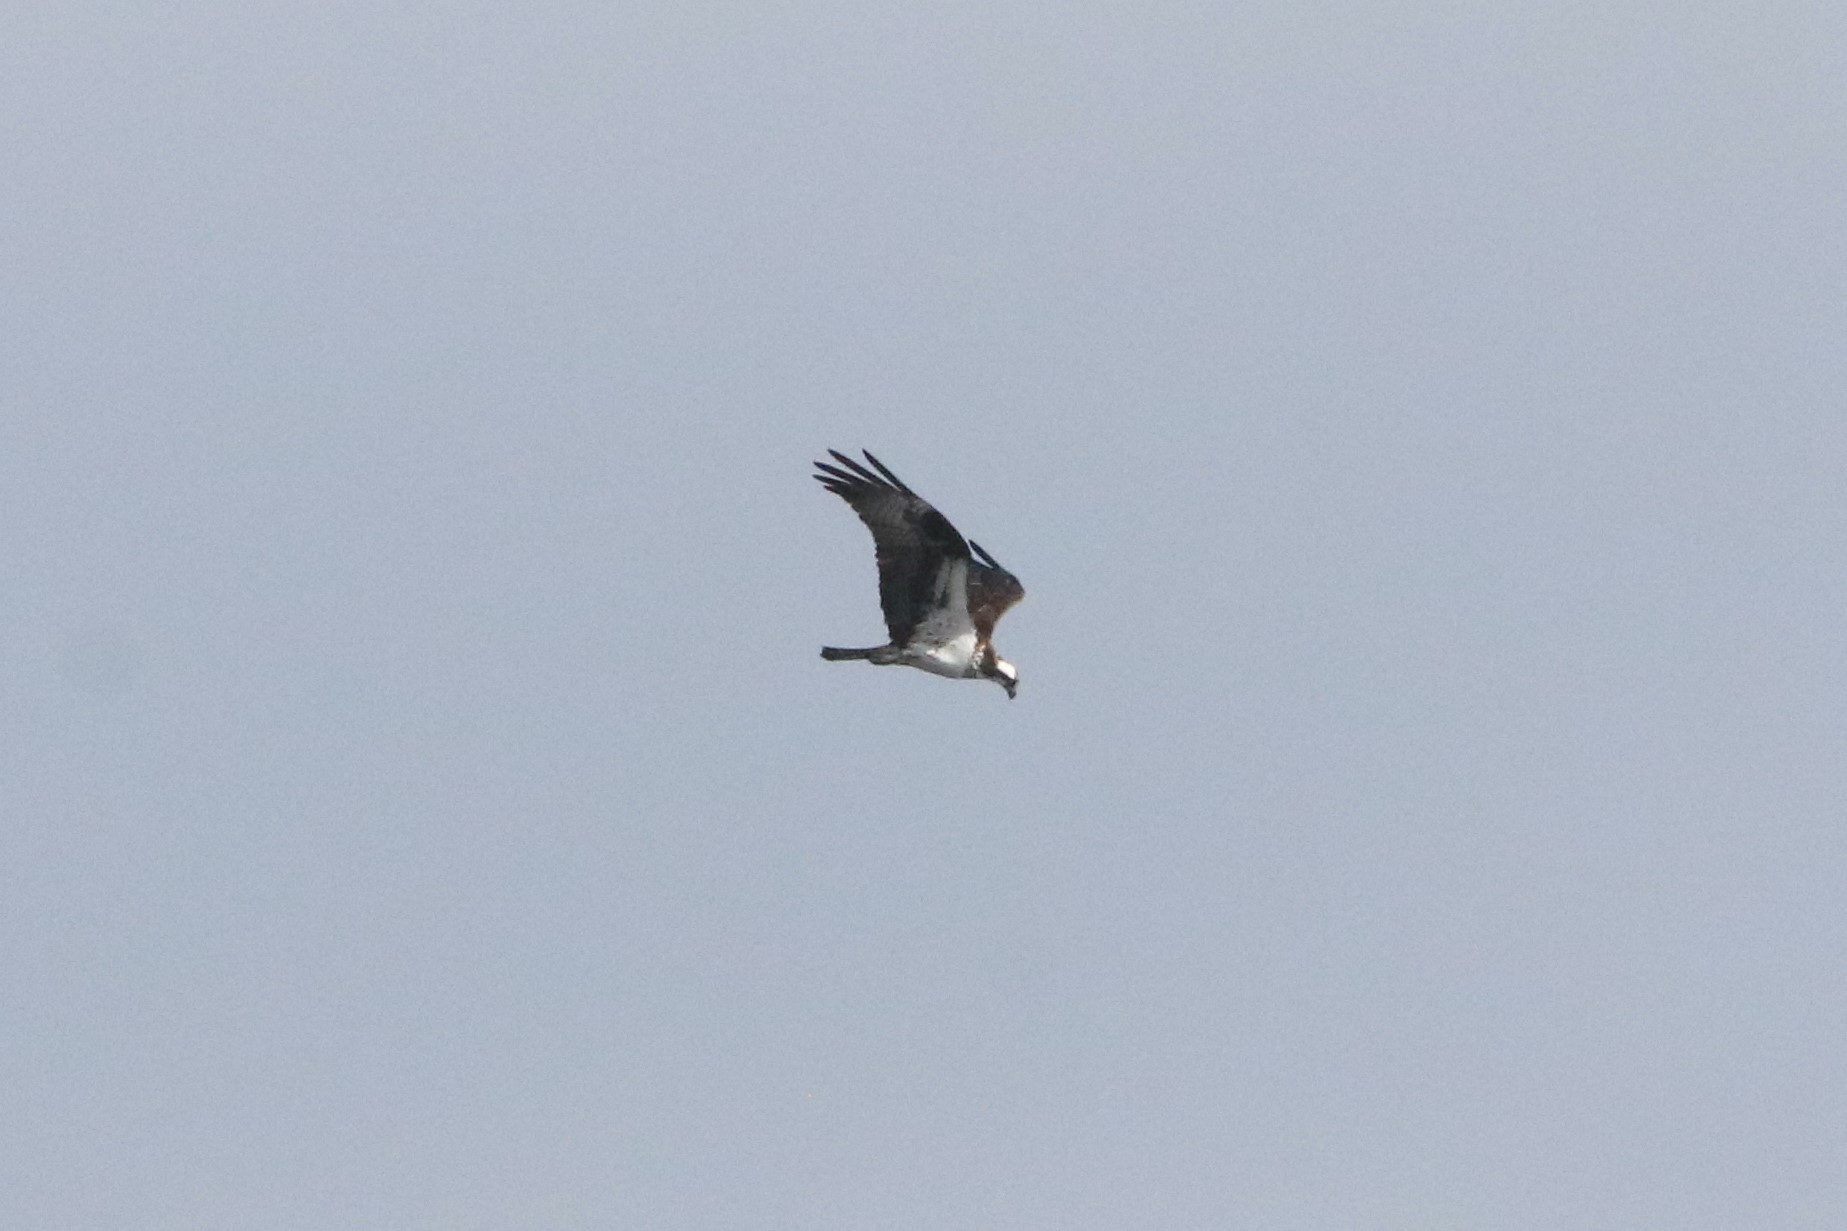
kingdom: Animalia
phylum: Chordata
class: Aves
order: Accipitriformes
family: Pandionidae
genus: Pandion
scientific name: Pandion haliaetus
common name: Osprey
